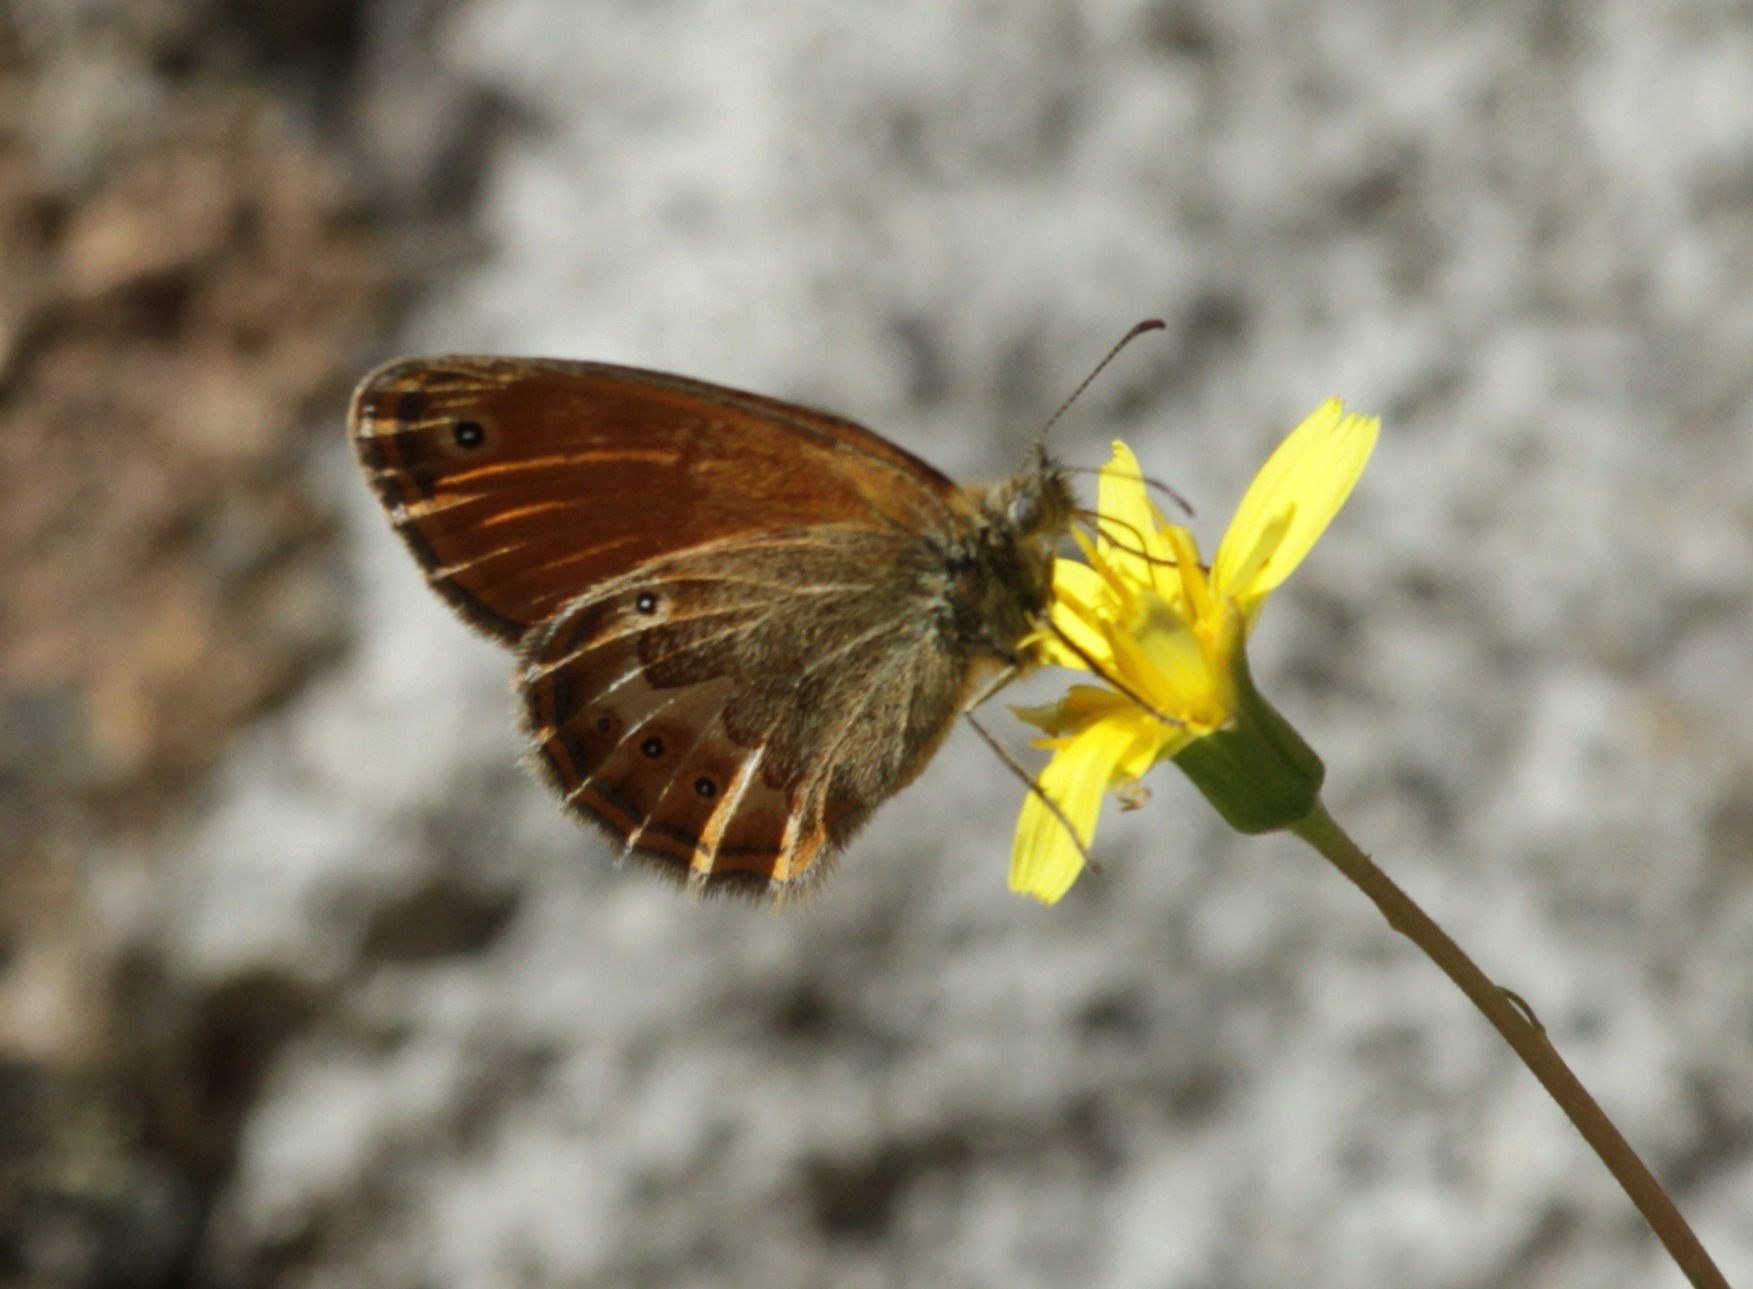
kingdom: Animalia
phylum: Arthropoda
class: Insecta
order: Lepidoptera
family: Nymphalidae
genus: Coenonympha
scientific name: Coenonympha corinna
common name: Corsican heath
